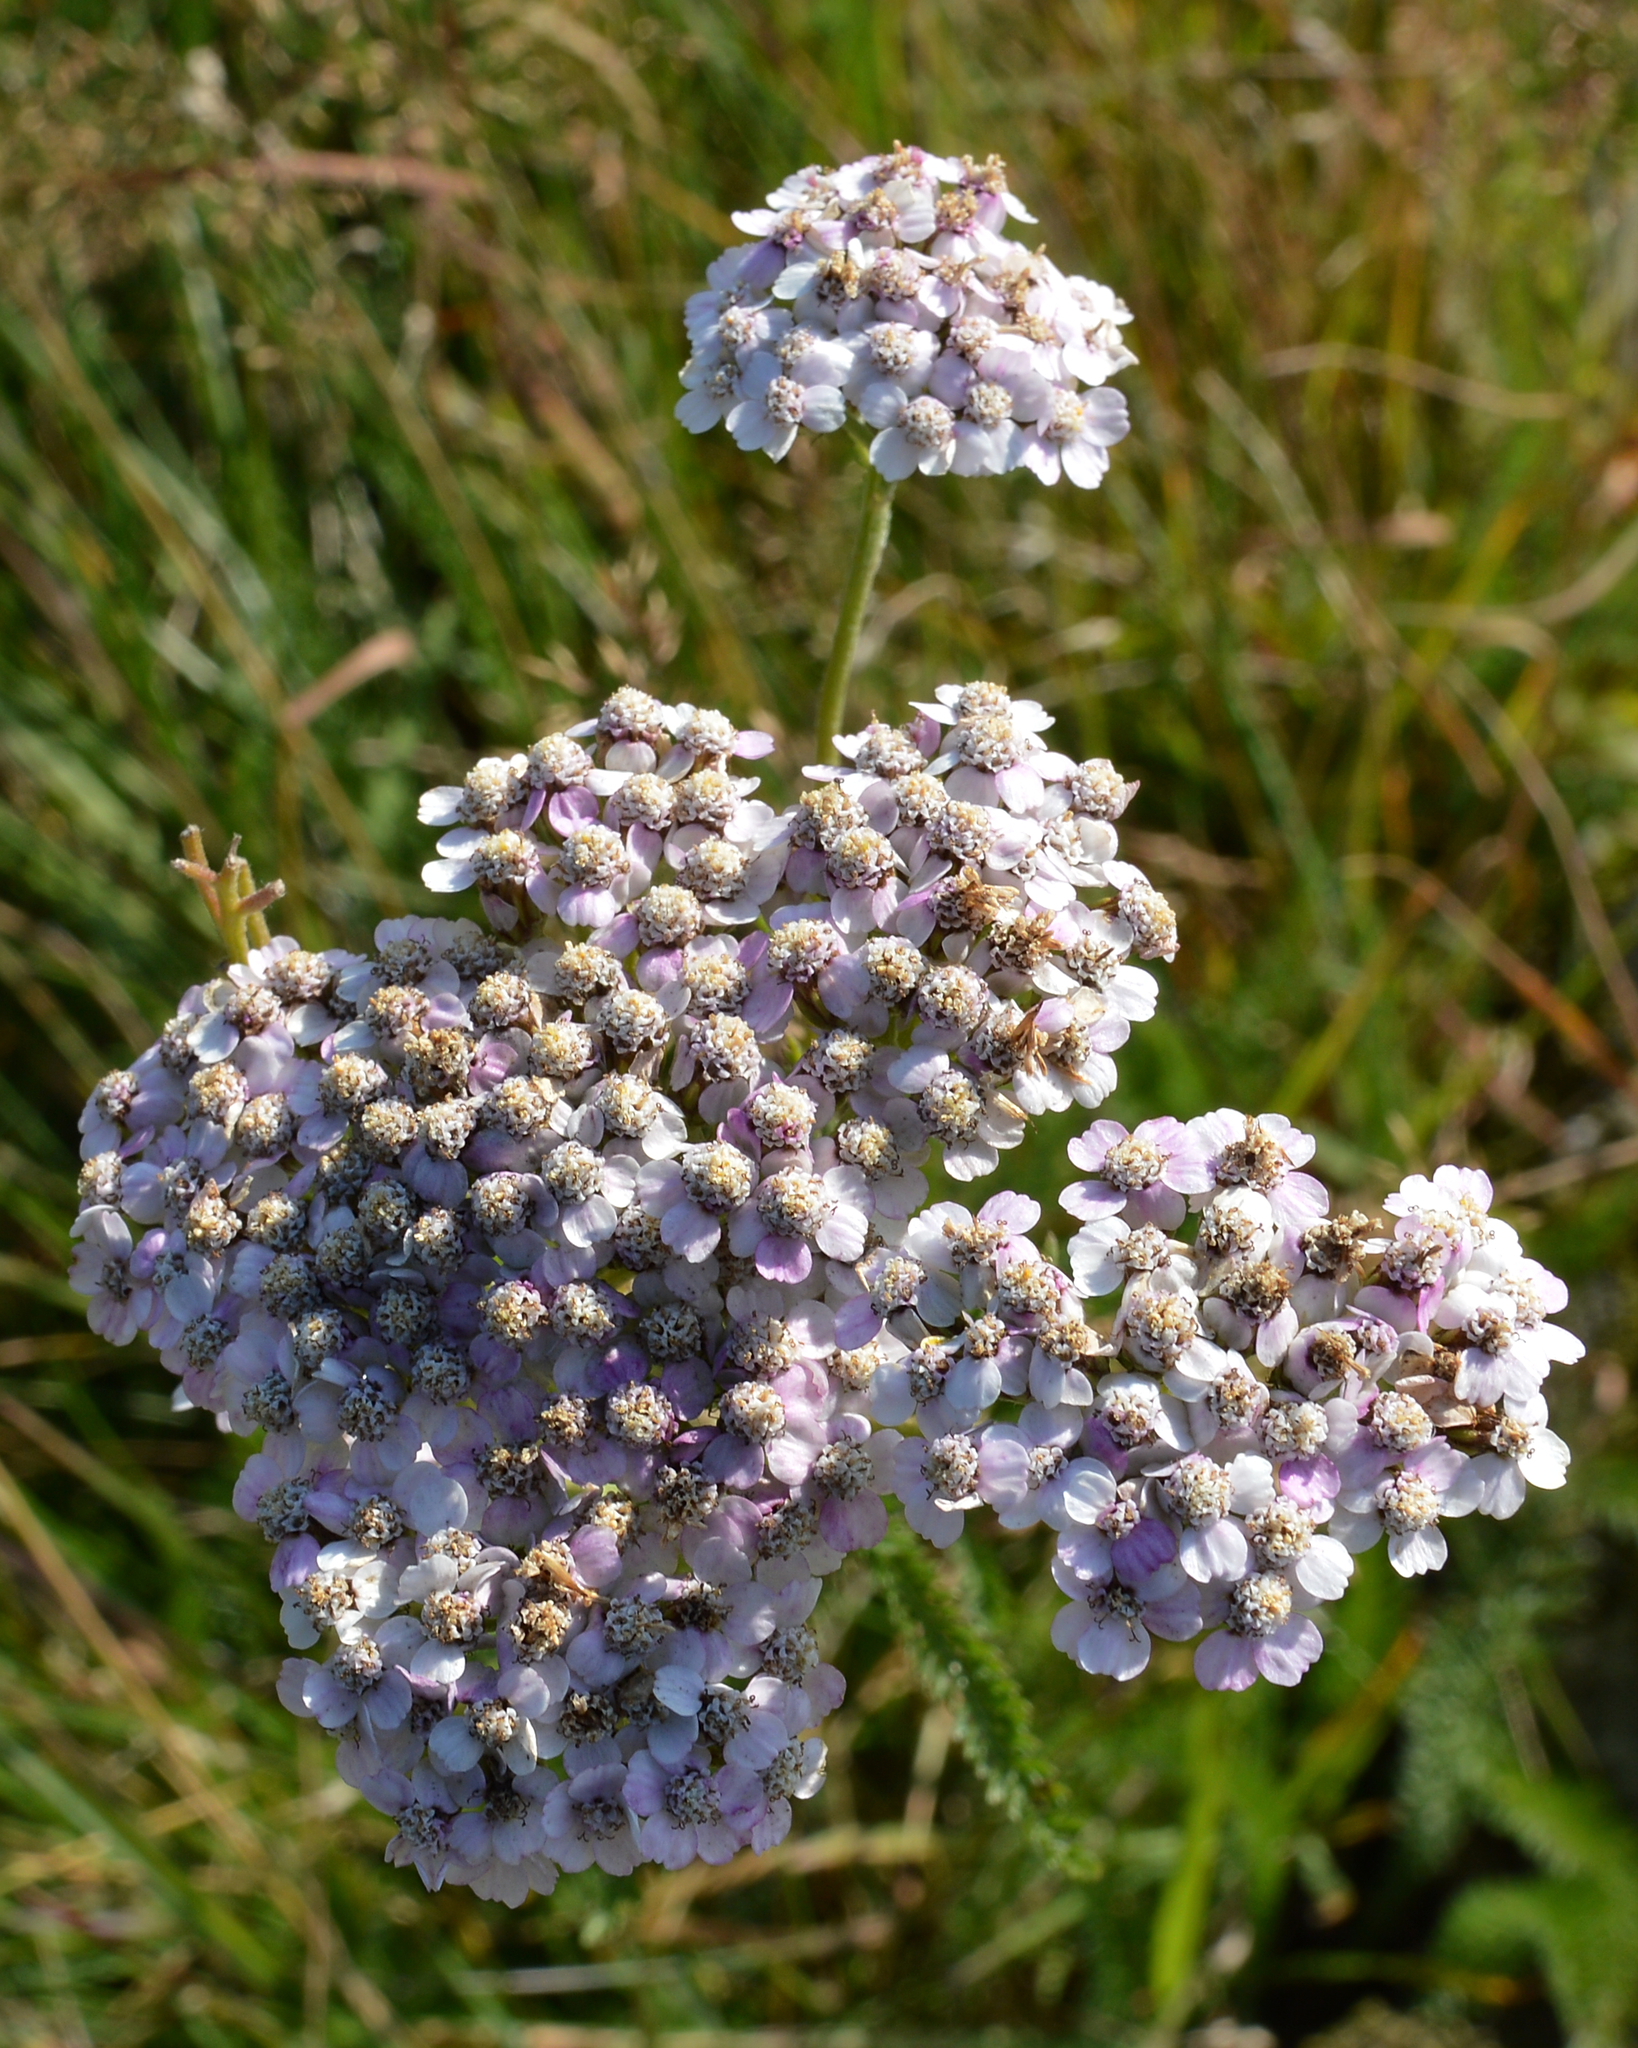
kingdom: Plantae
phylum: Tracheophyta
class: Magnoliopsida
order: Asterales
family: Asteraceae
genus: Achillea
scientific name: Achillea millefolium
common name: Yarrow
